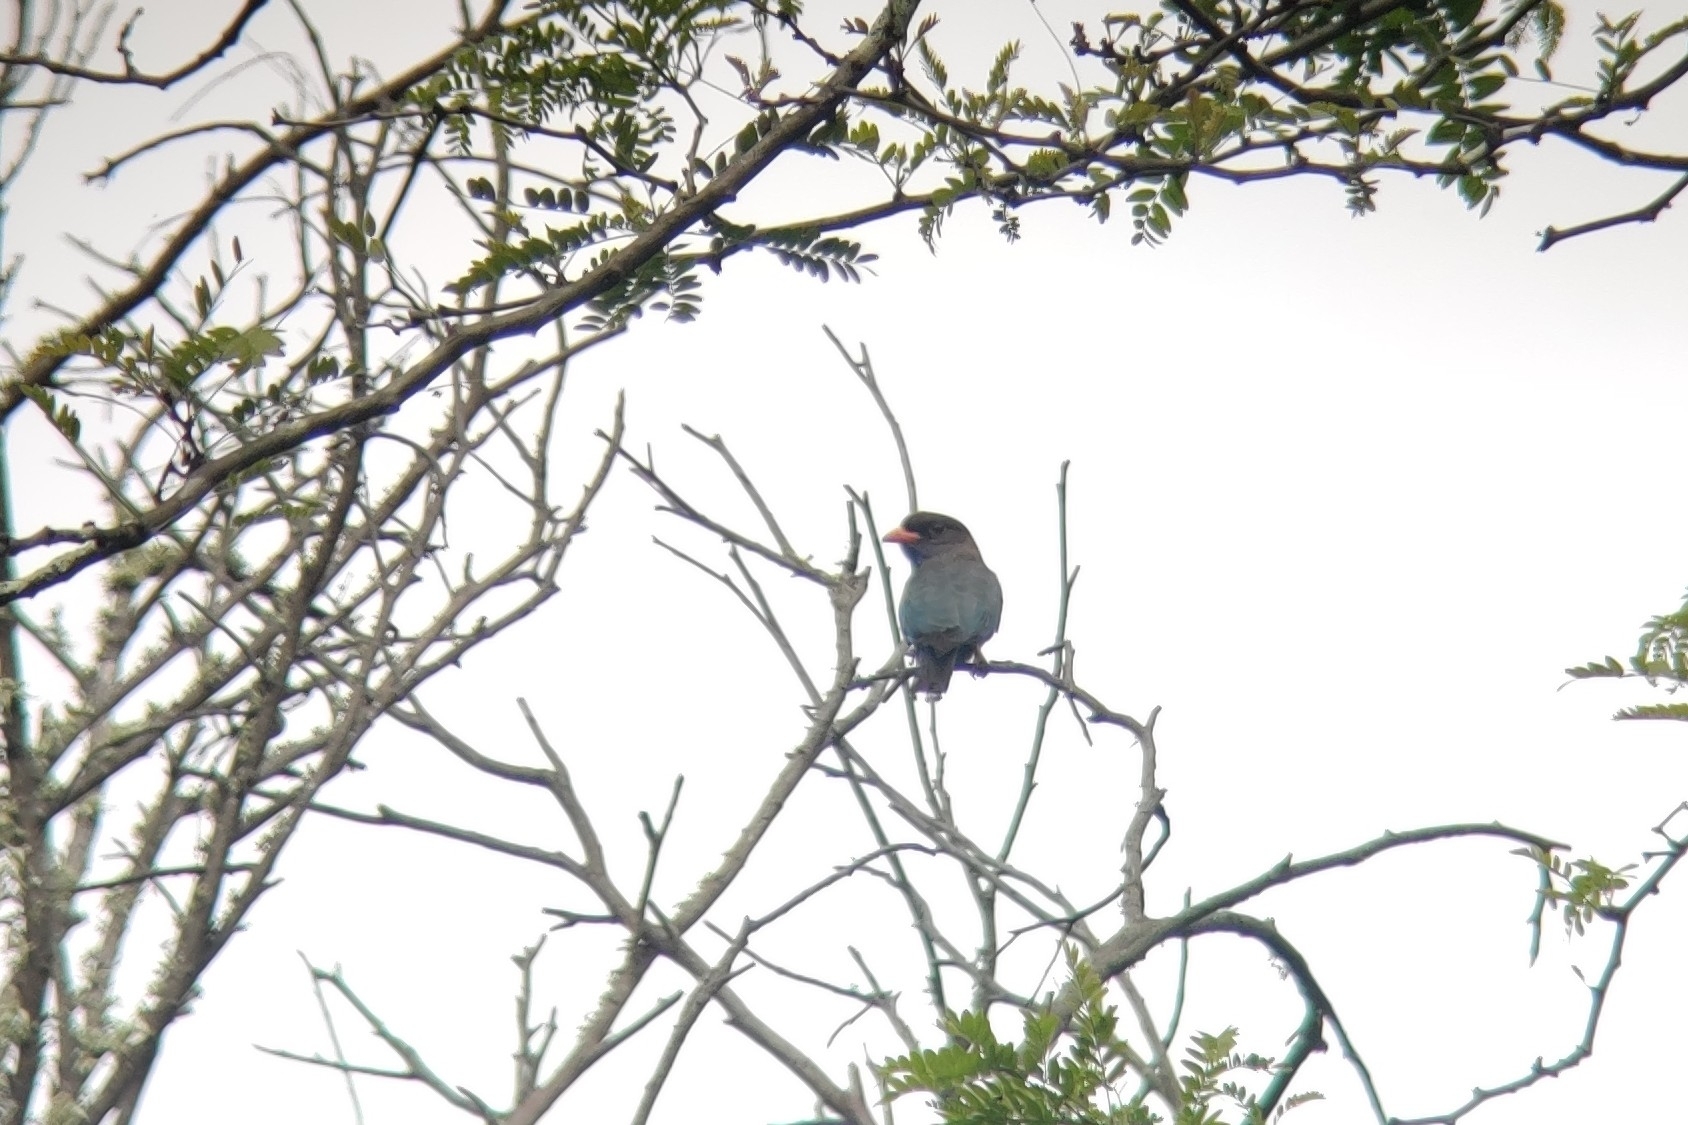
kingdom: Animalia
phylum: Chordata
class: Aves
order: Coraciiformes
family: Coraciidae
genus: Eurystomus
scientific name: Eurystomus orientalis
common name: Oriental dollarbird
